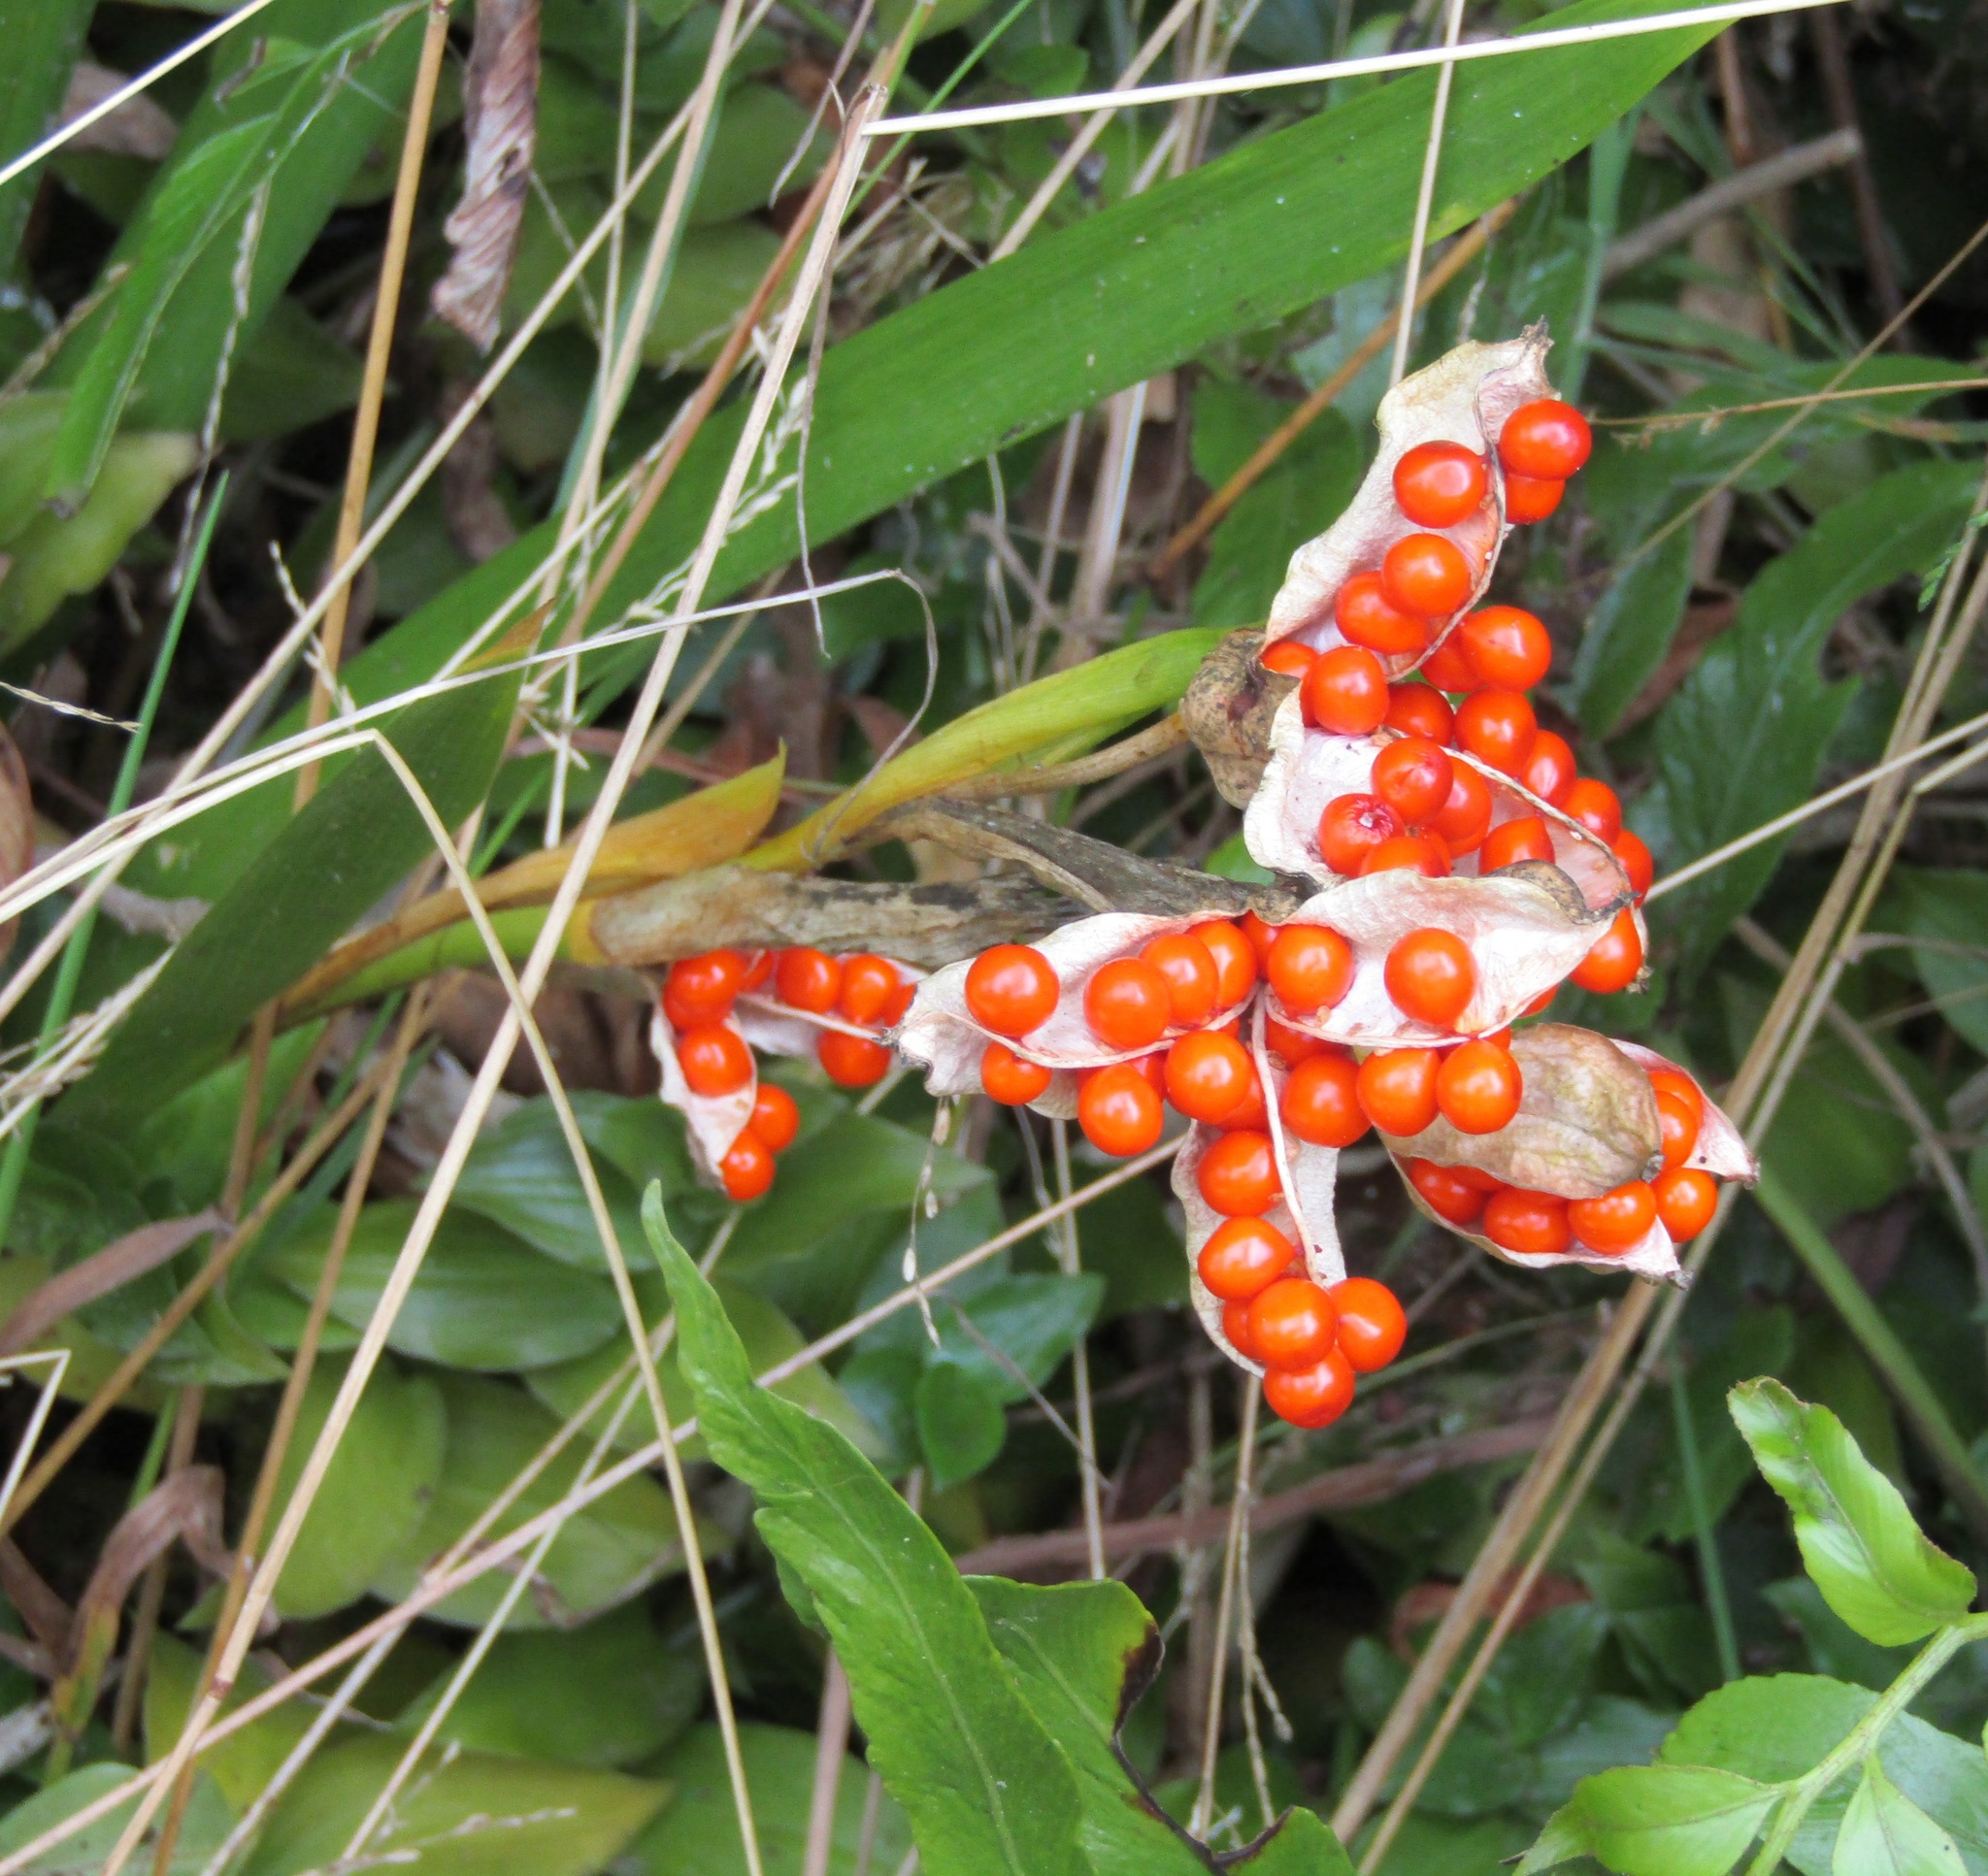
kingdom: Plantae
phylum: Tracheophyta
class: Liliopsida
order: Asparagales
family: Iridaceae
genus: Iris
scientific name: Iris foetidissima
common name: Stinking iris
